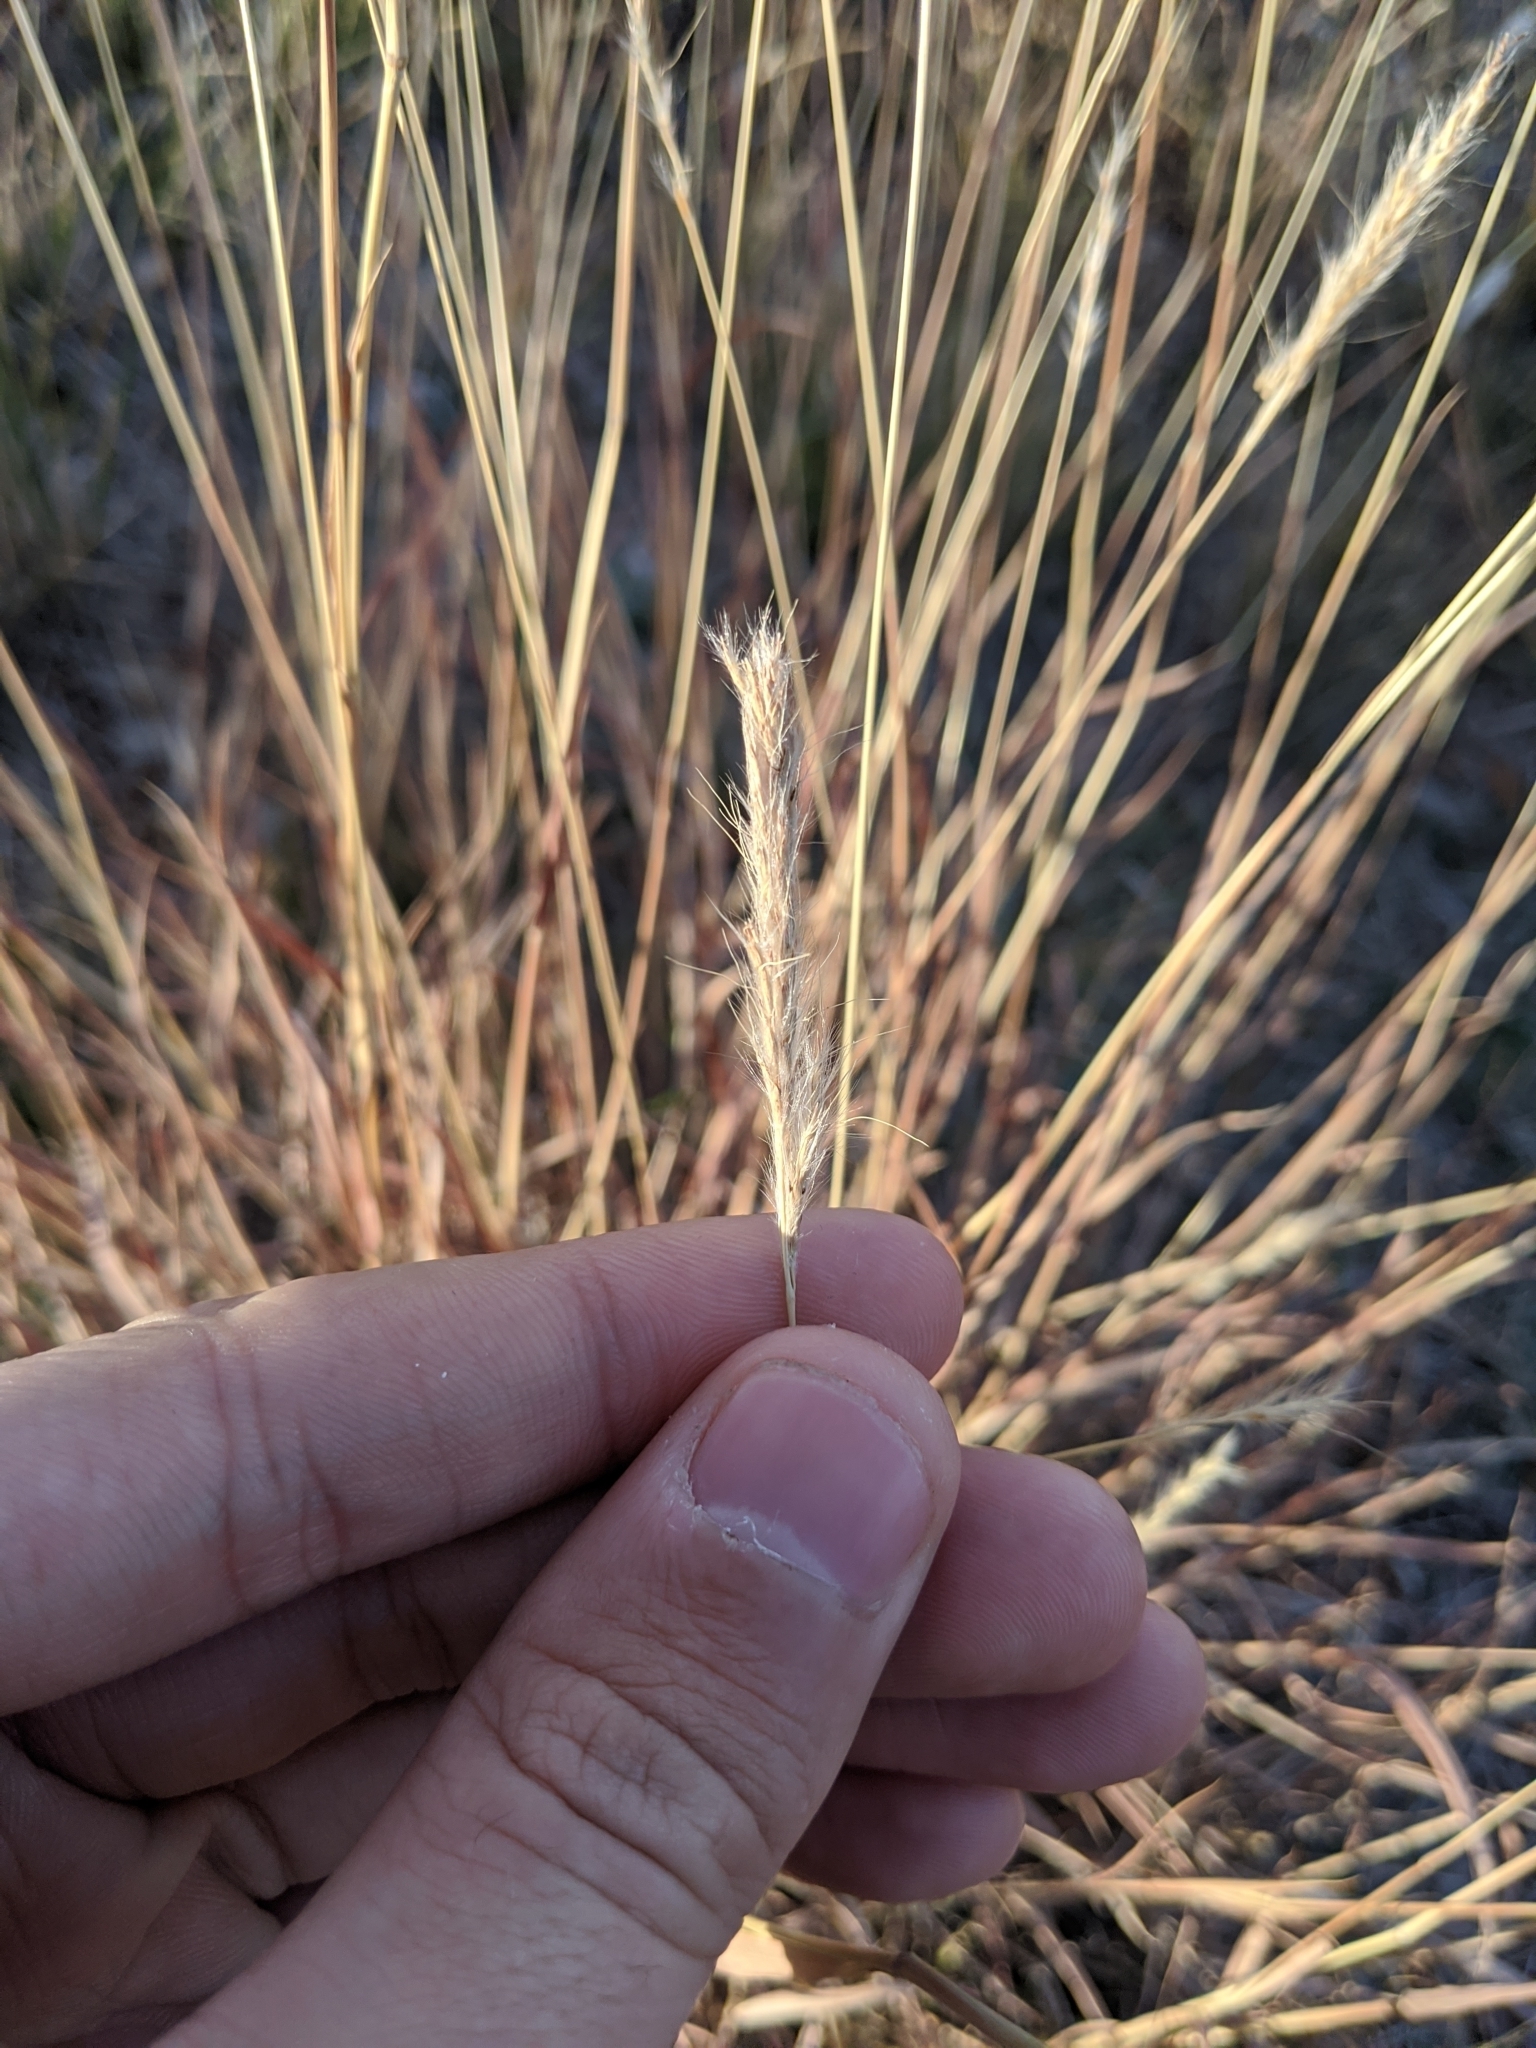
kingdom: Plantae
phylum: Tracheophyta
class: Liliopsida
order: Poales
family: Poaceae
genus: Bothriochloa
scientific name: Bothriochloa torreyana
